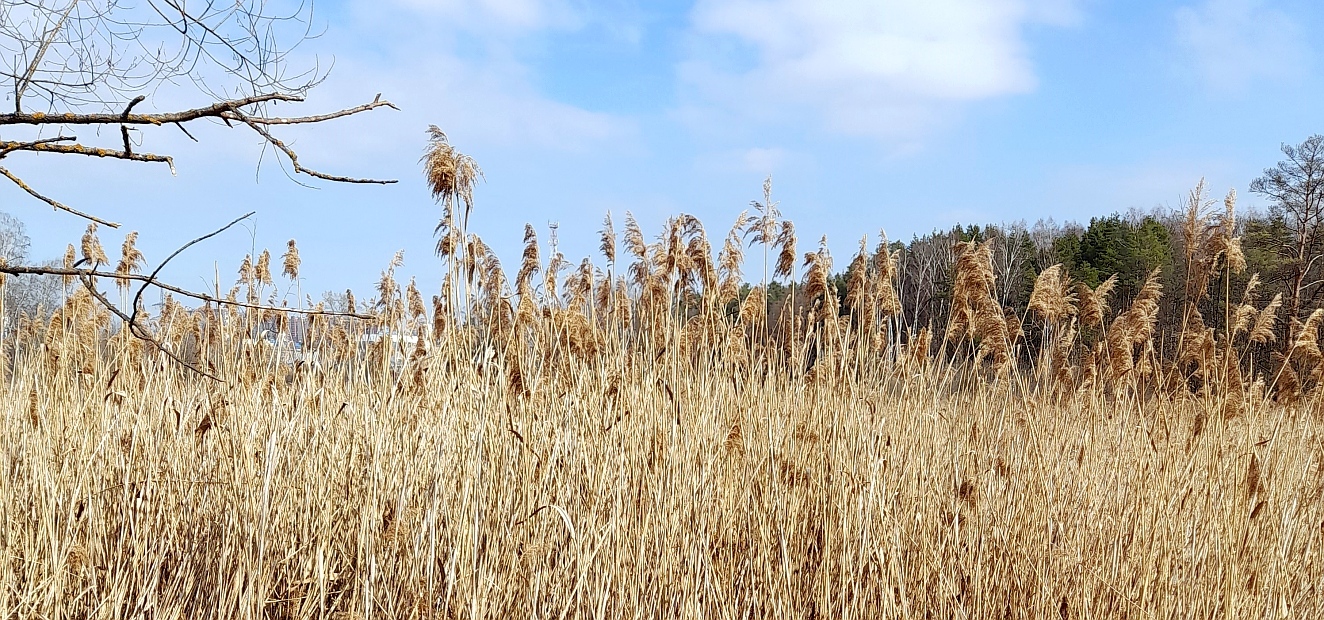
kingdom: Plantae
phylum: Tracheophyta
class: Liliopsida
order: Poales
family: Poaceae
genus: Phragmites
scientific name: Phragmites australis
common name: Common reed
